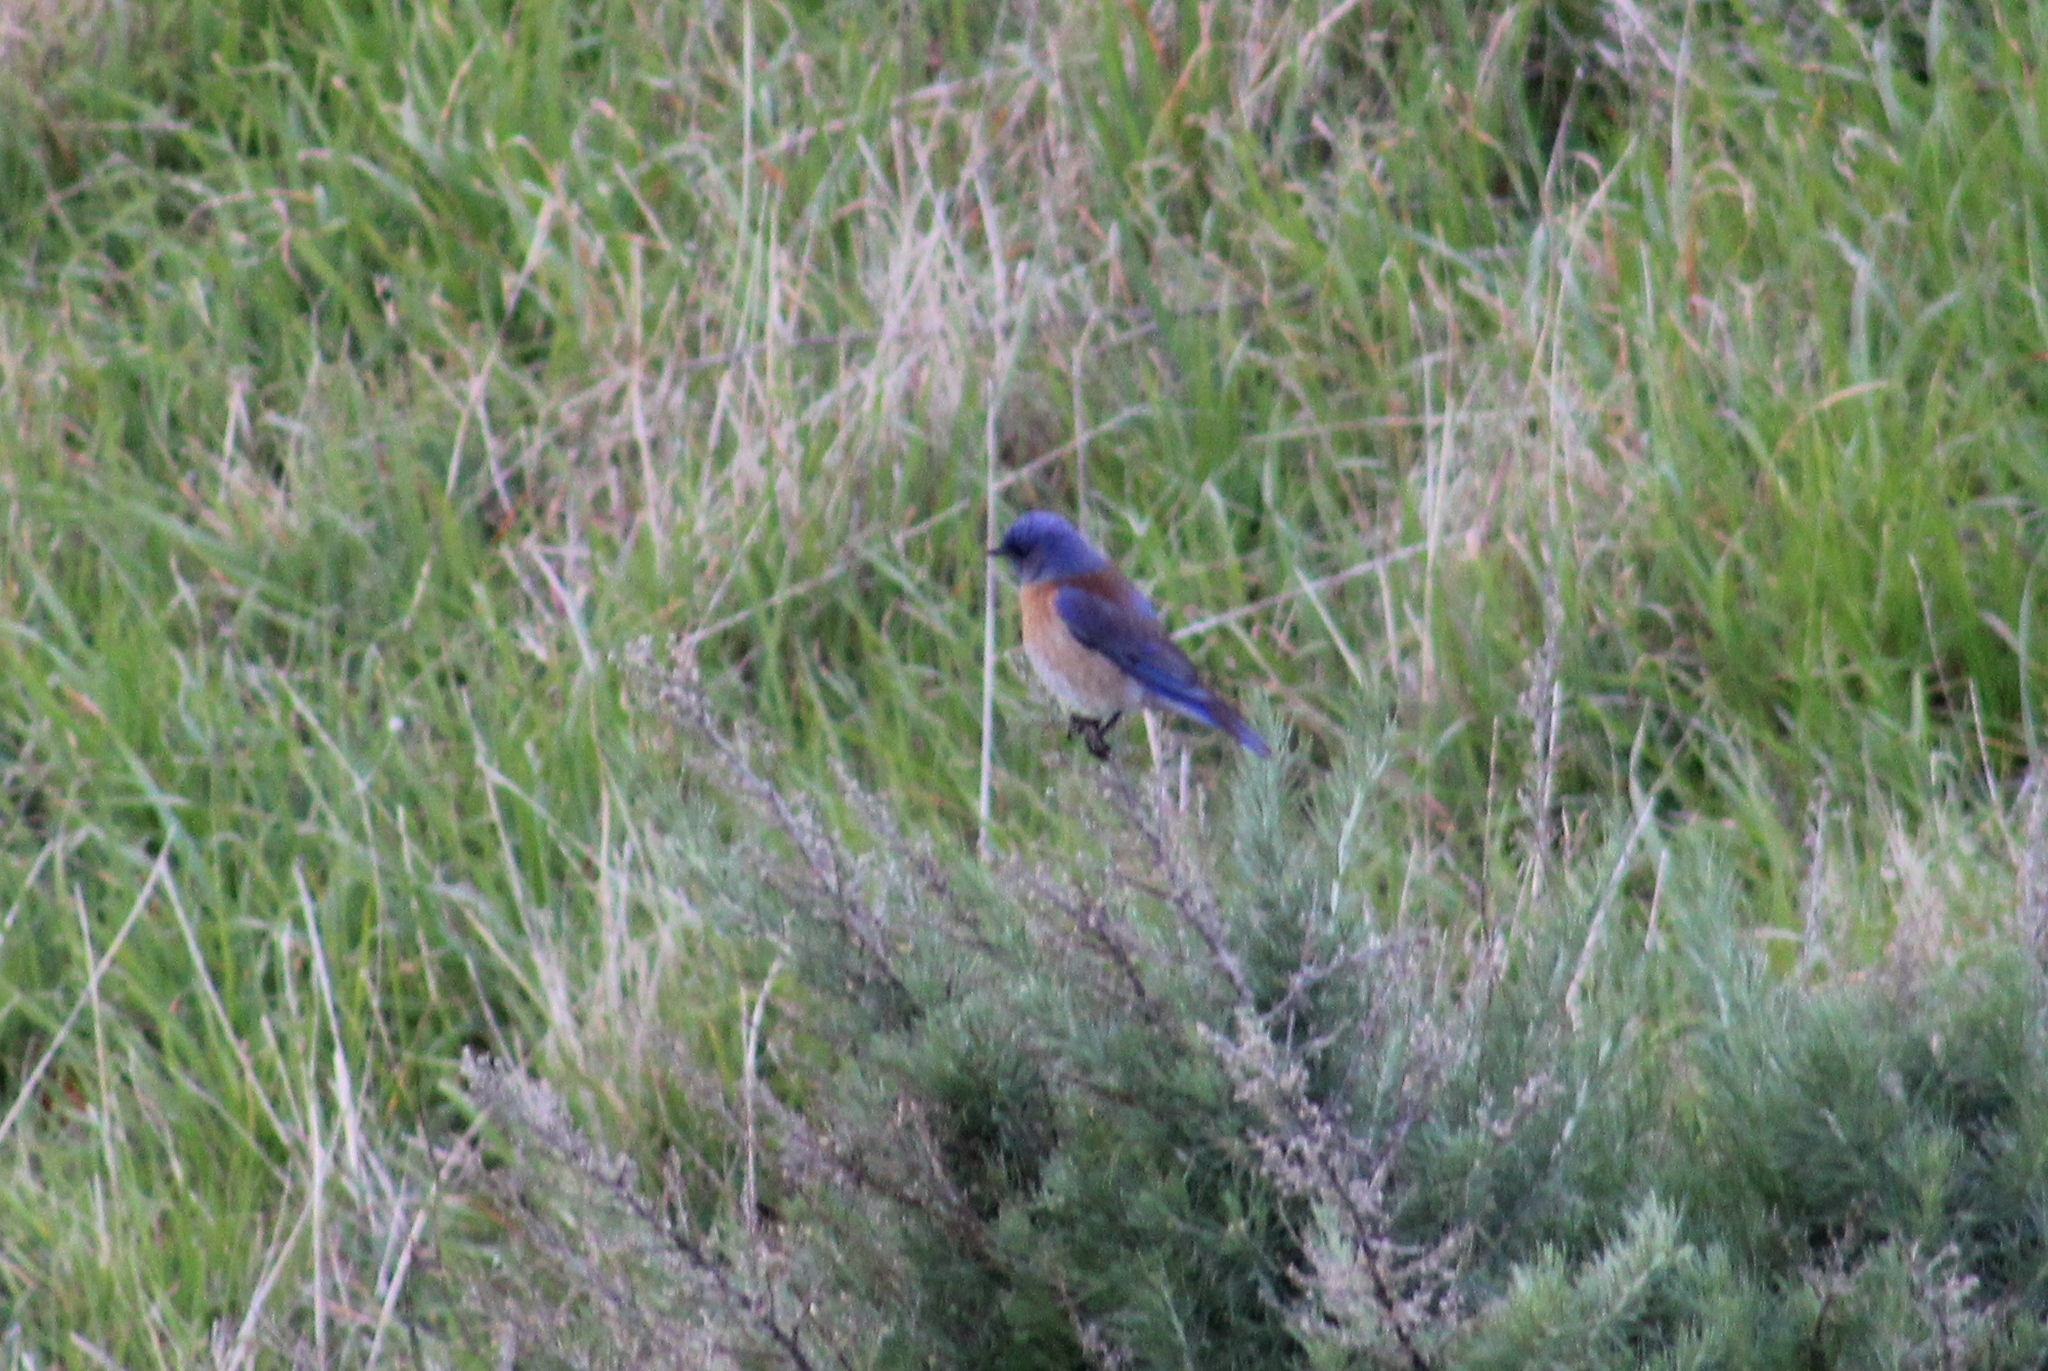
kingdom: Animalia
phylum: Chordata
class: Aves
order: Passeriformes
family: Turdidae
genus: Sialia
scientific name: Sialia mexicana
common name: Western bluebird
